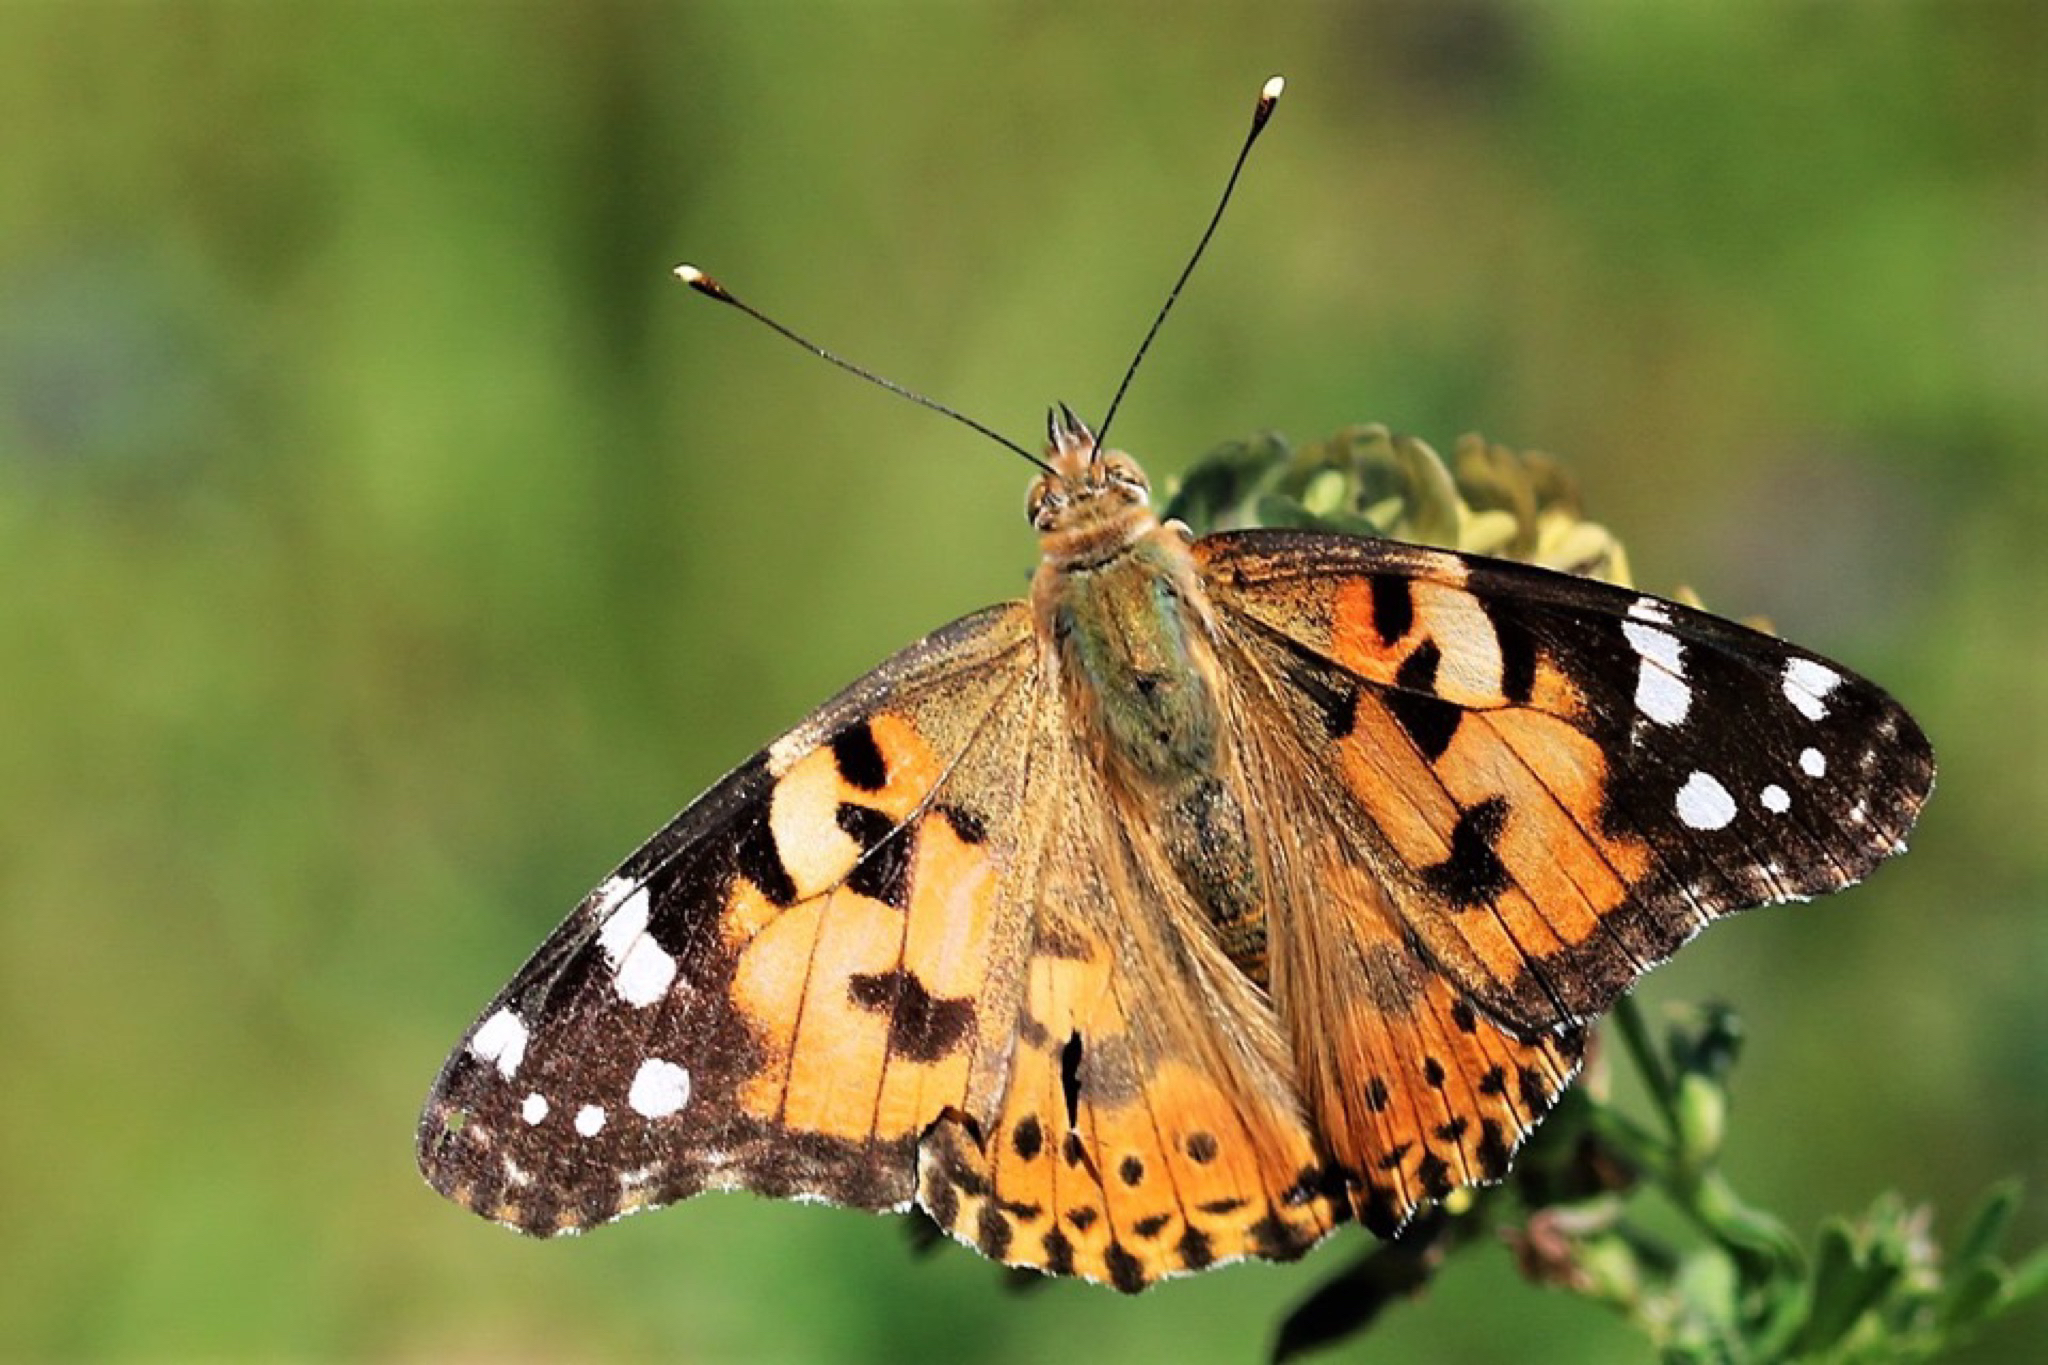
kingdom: Animalia
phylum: Arthropoda
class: Insecta
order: Lepidoptera
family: Nymphalidae
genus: Vanessa
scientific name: Vanessa cardui
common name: Painted lady
